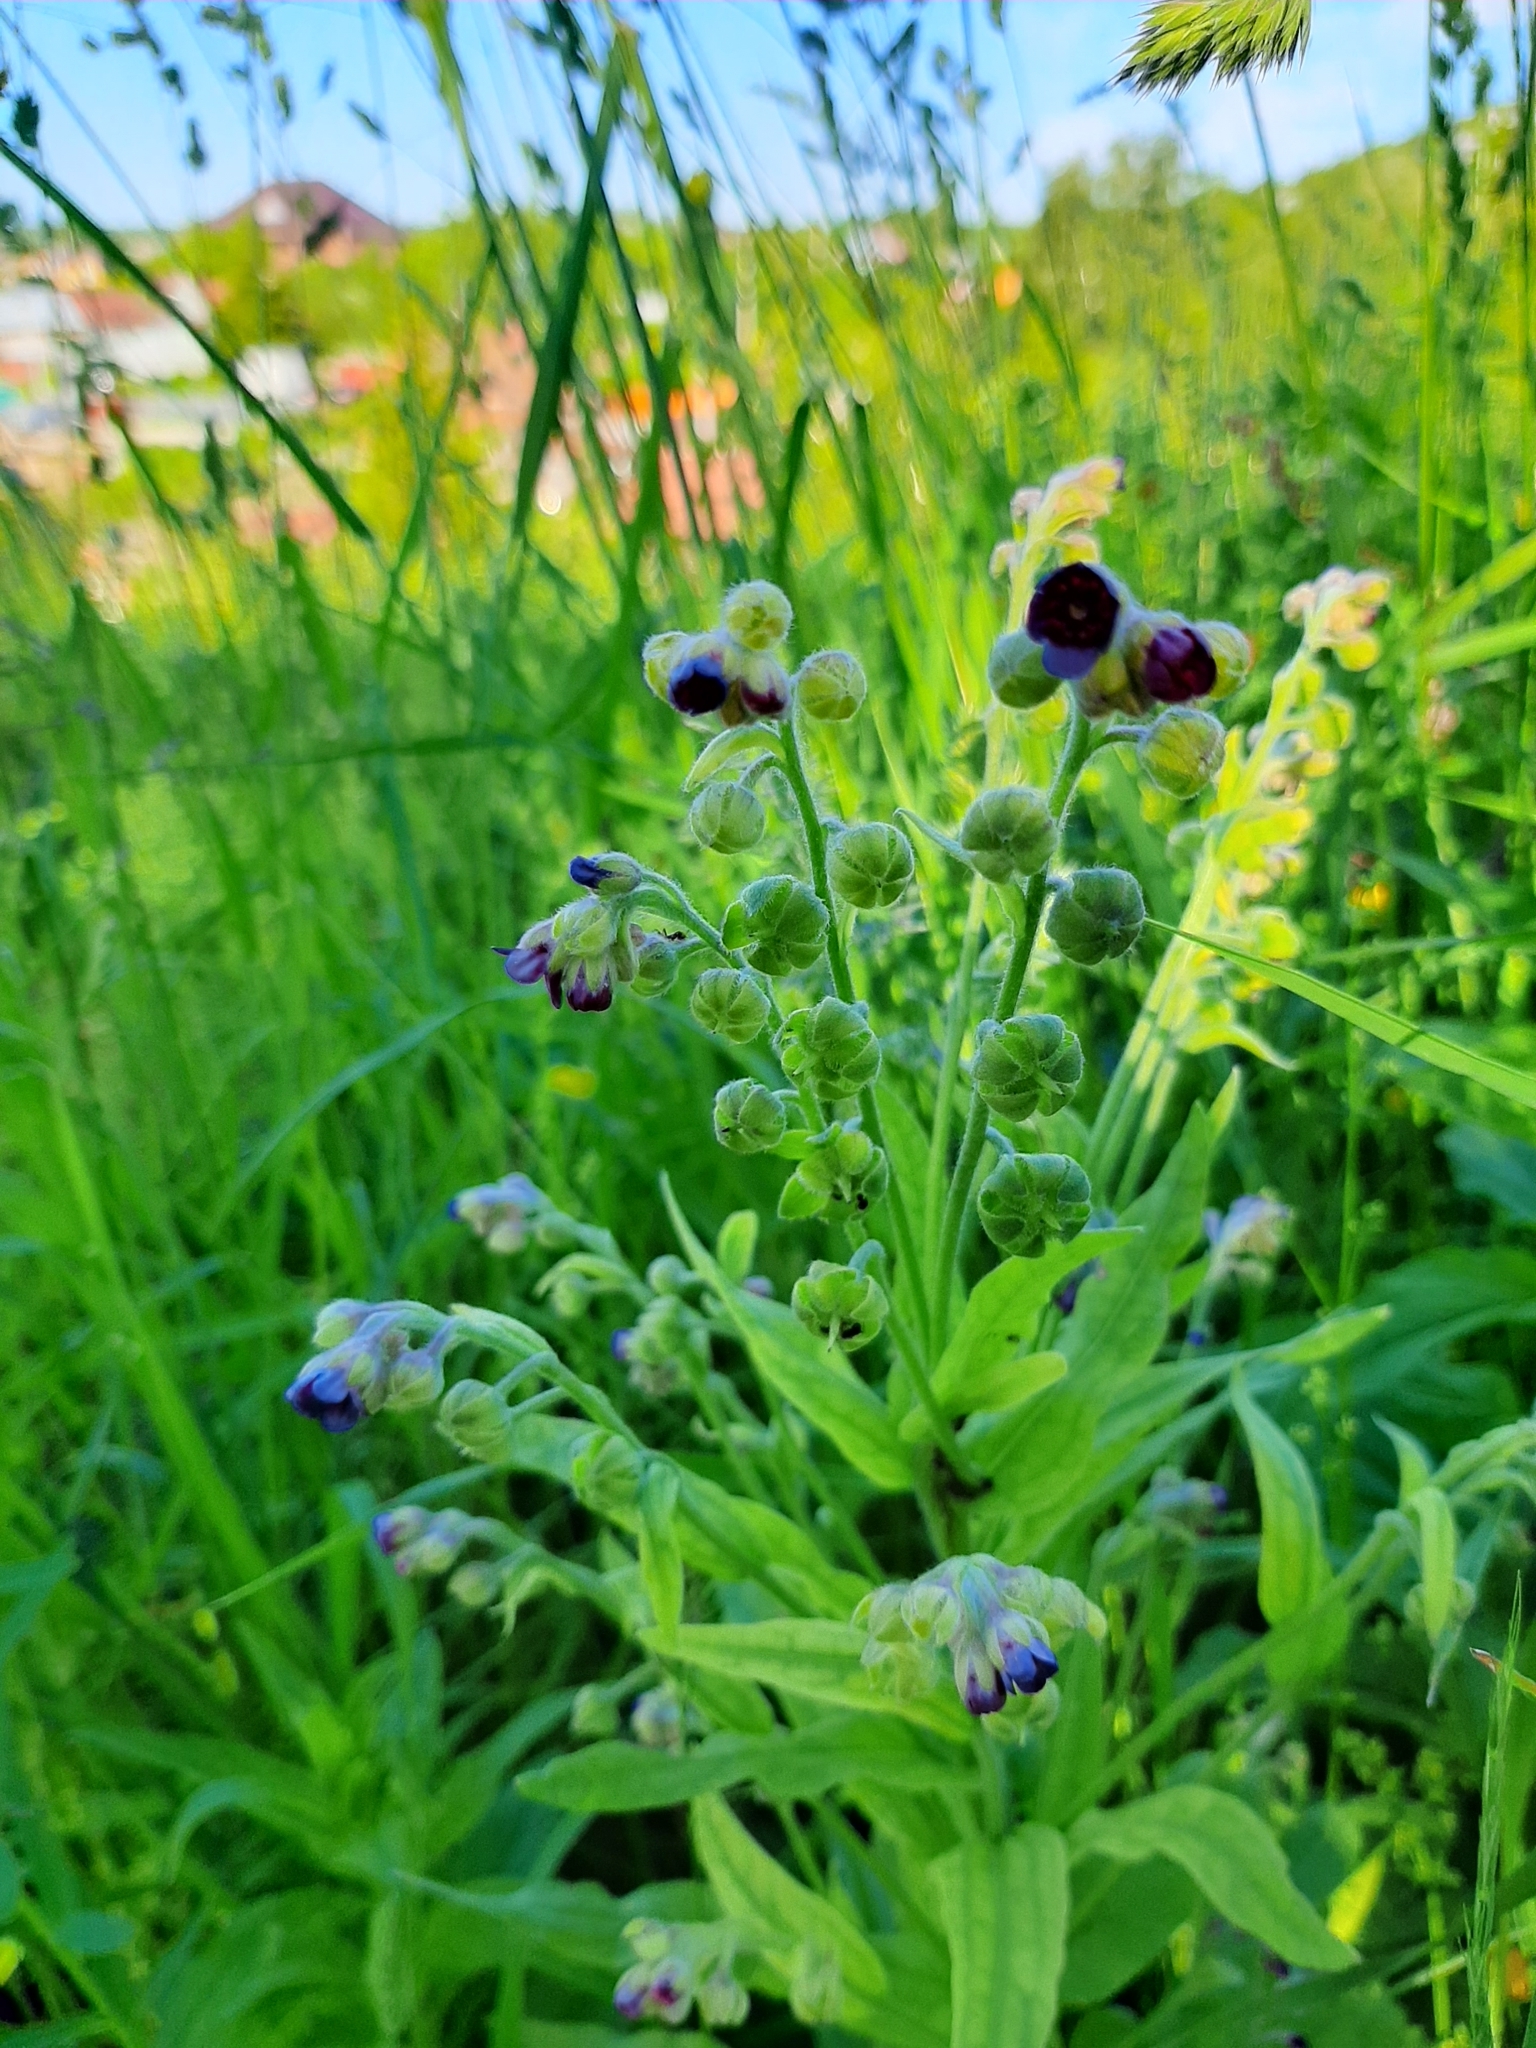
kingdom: Plantae
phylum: Tracheophyta
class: Magnoliopsida
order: Boraginales
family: Boraginaceae
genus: Cynoglossum
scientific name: Cynoglossum officinale
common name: Hound's-tongue
